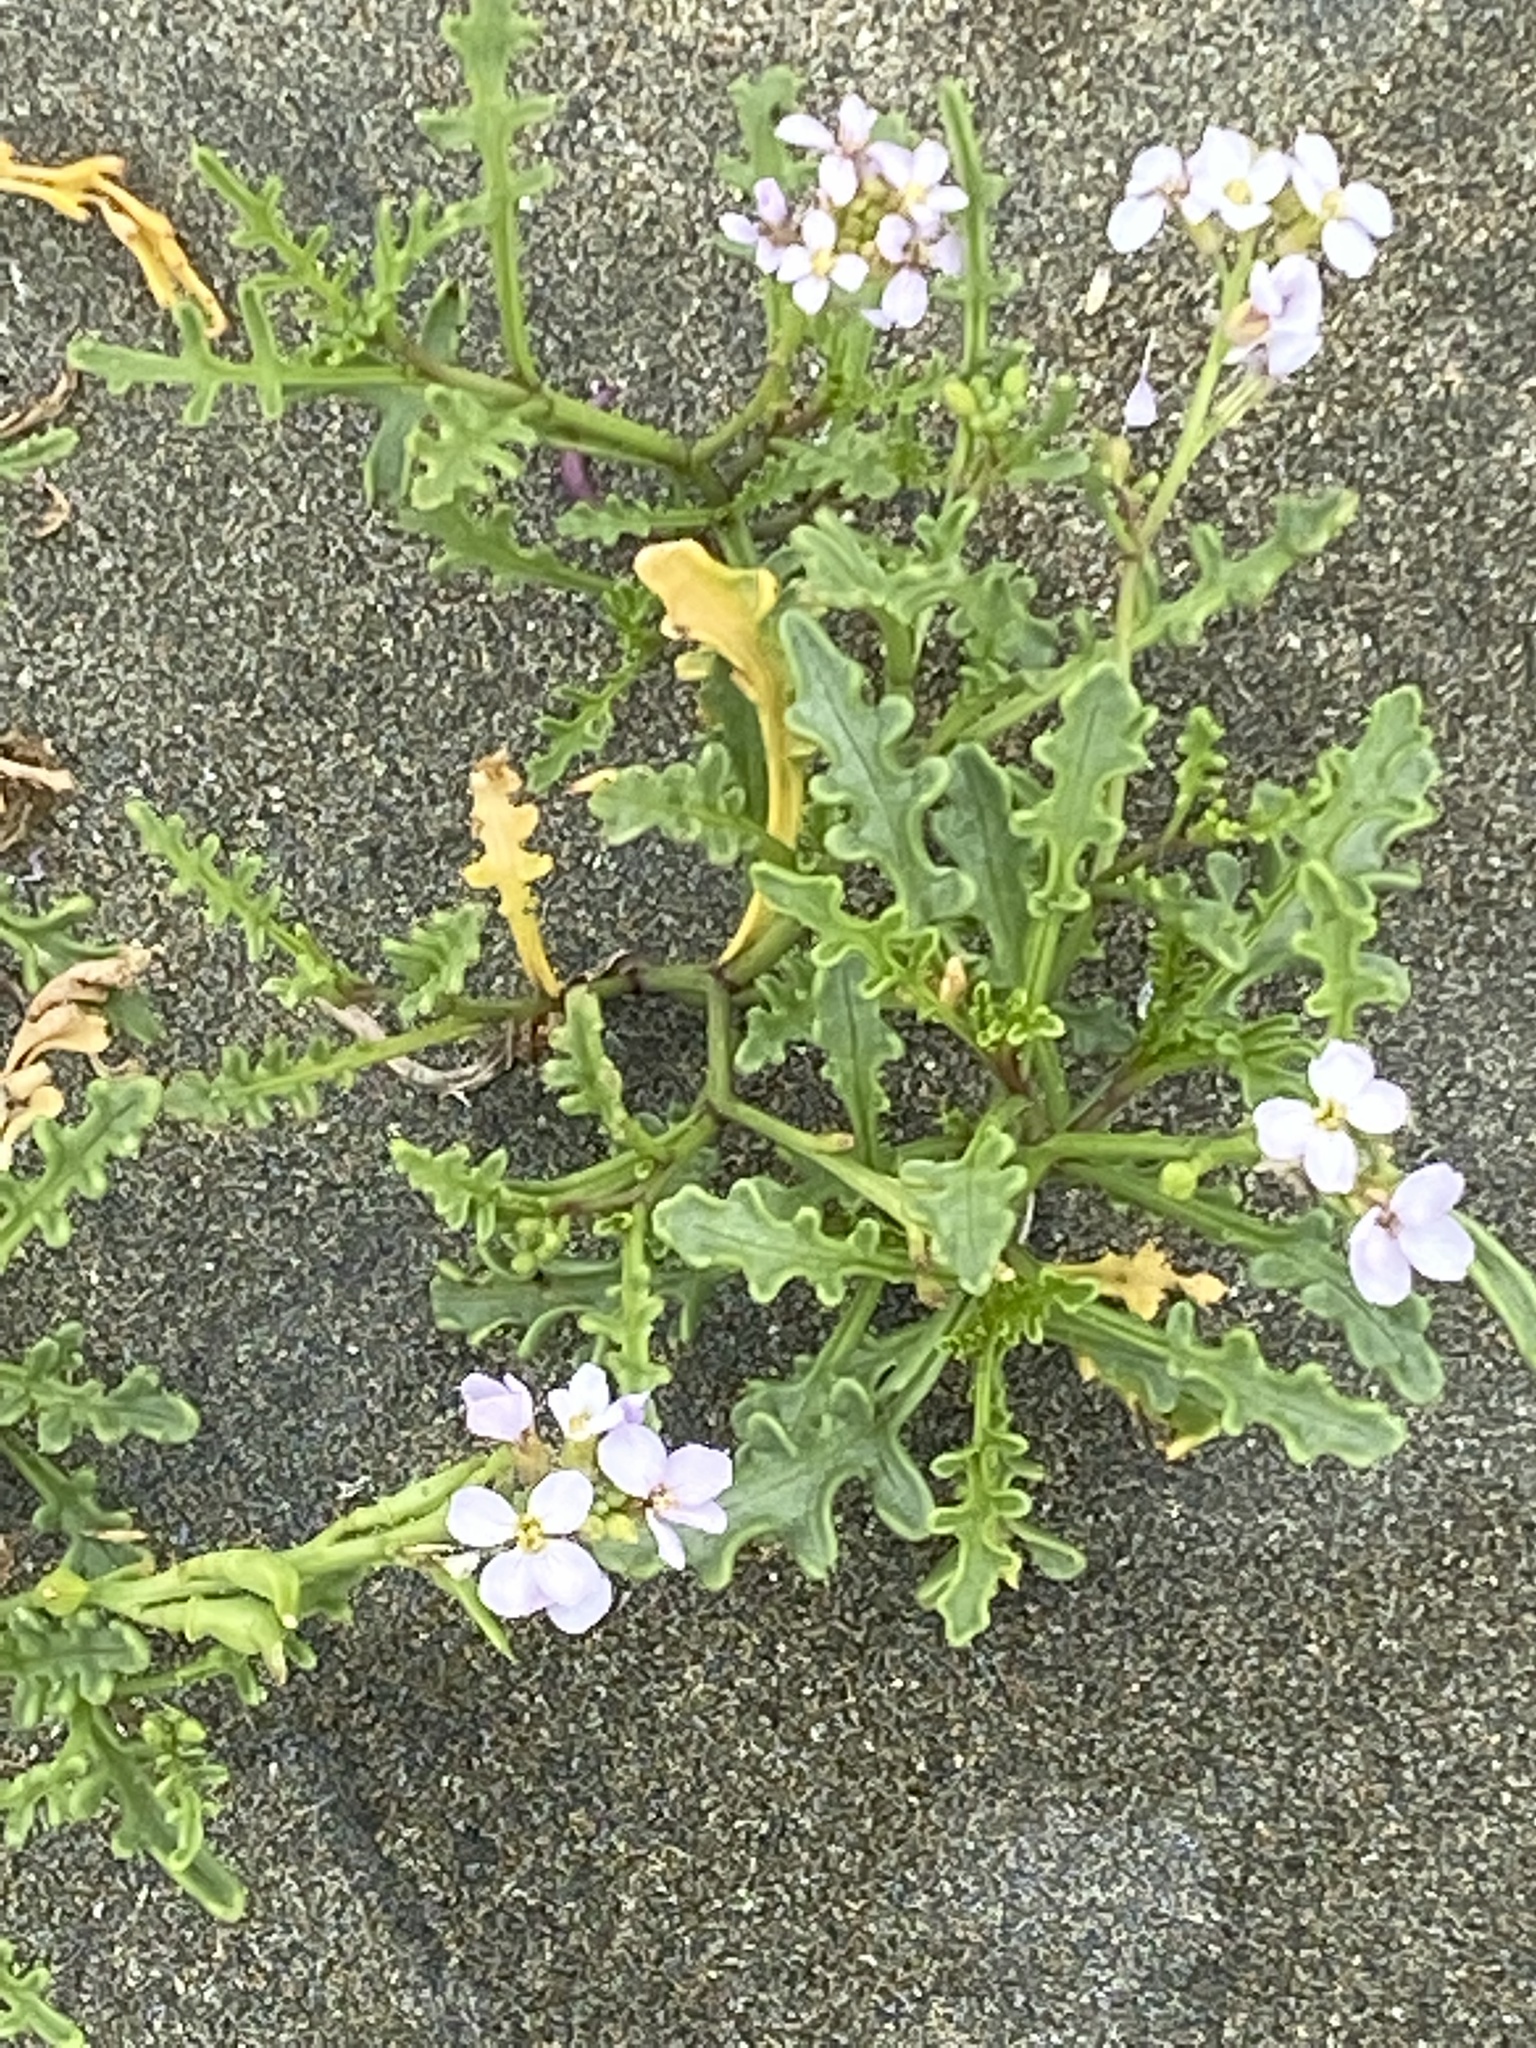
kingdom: Plantae
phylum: Tracheophyta
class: Magnoliopsida
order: Brassicales
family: Brassicaceae
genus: Cakile
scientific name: Cakile maritima
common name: Sea rocket
